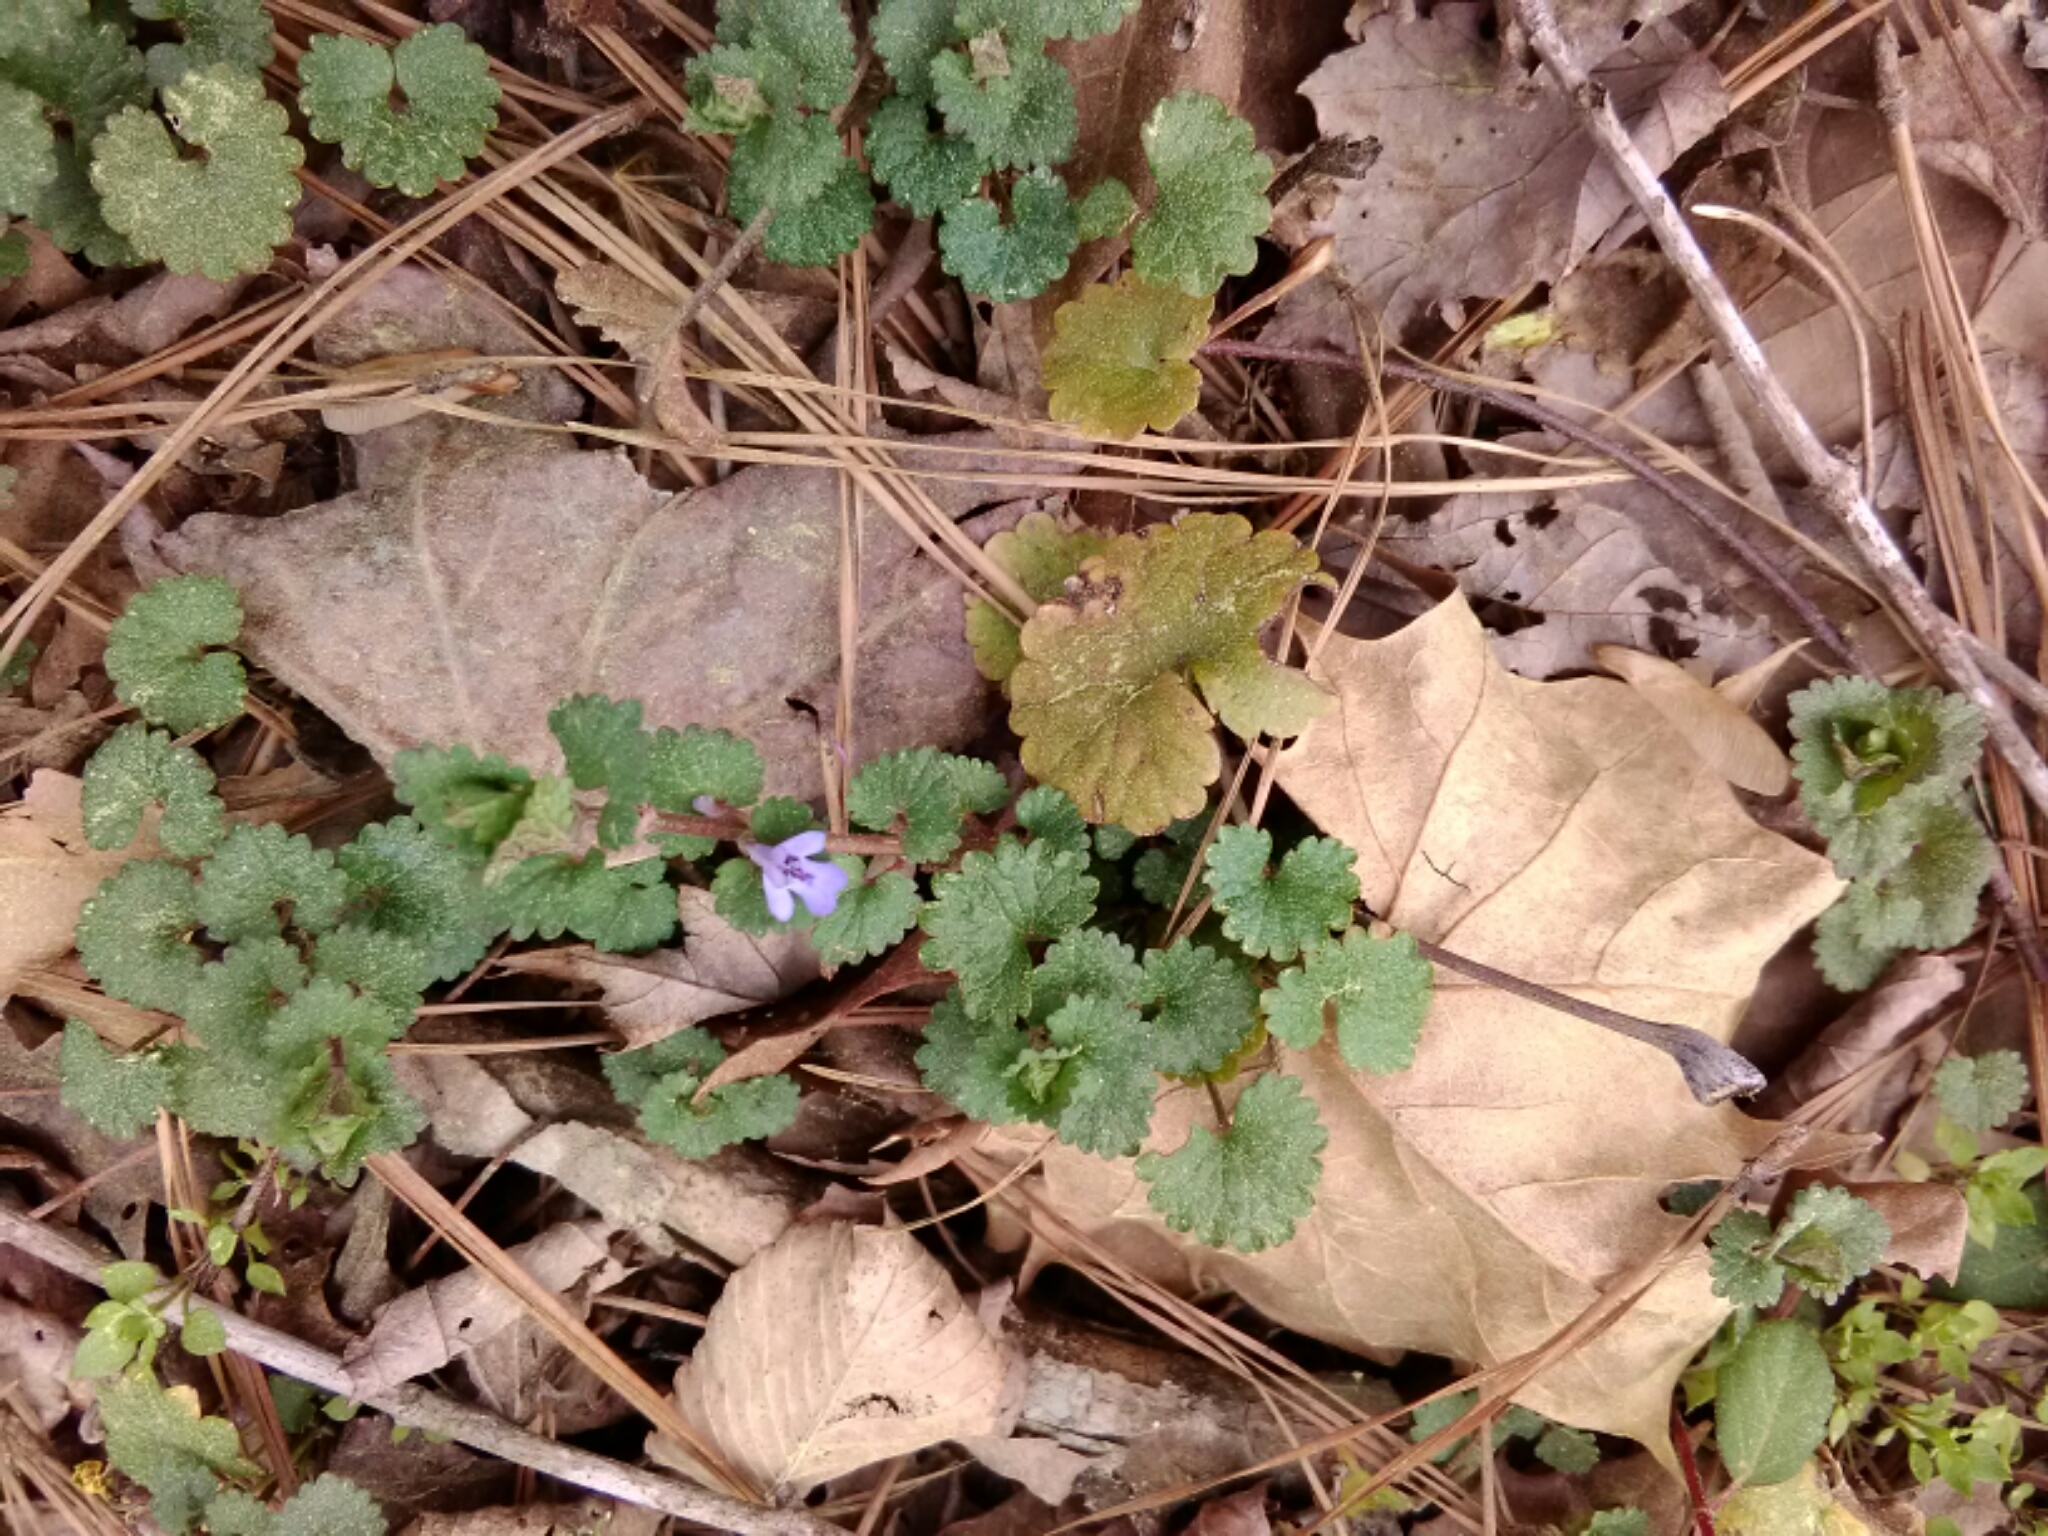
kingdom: Plantae
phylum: Tracheophyta
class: Magnoliopsida
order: Lamiales
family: Lamiaceae
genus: Glechoma
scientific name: Glechoma hederacea
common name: Ground ivy
